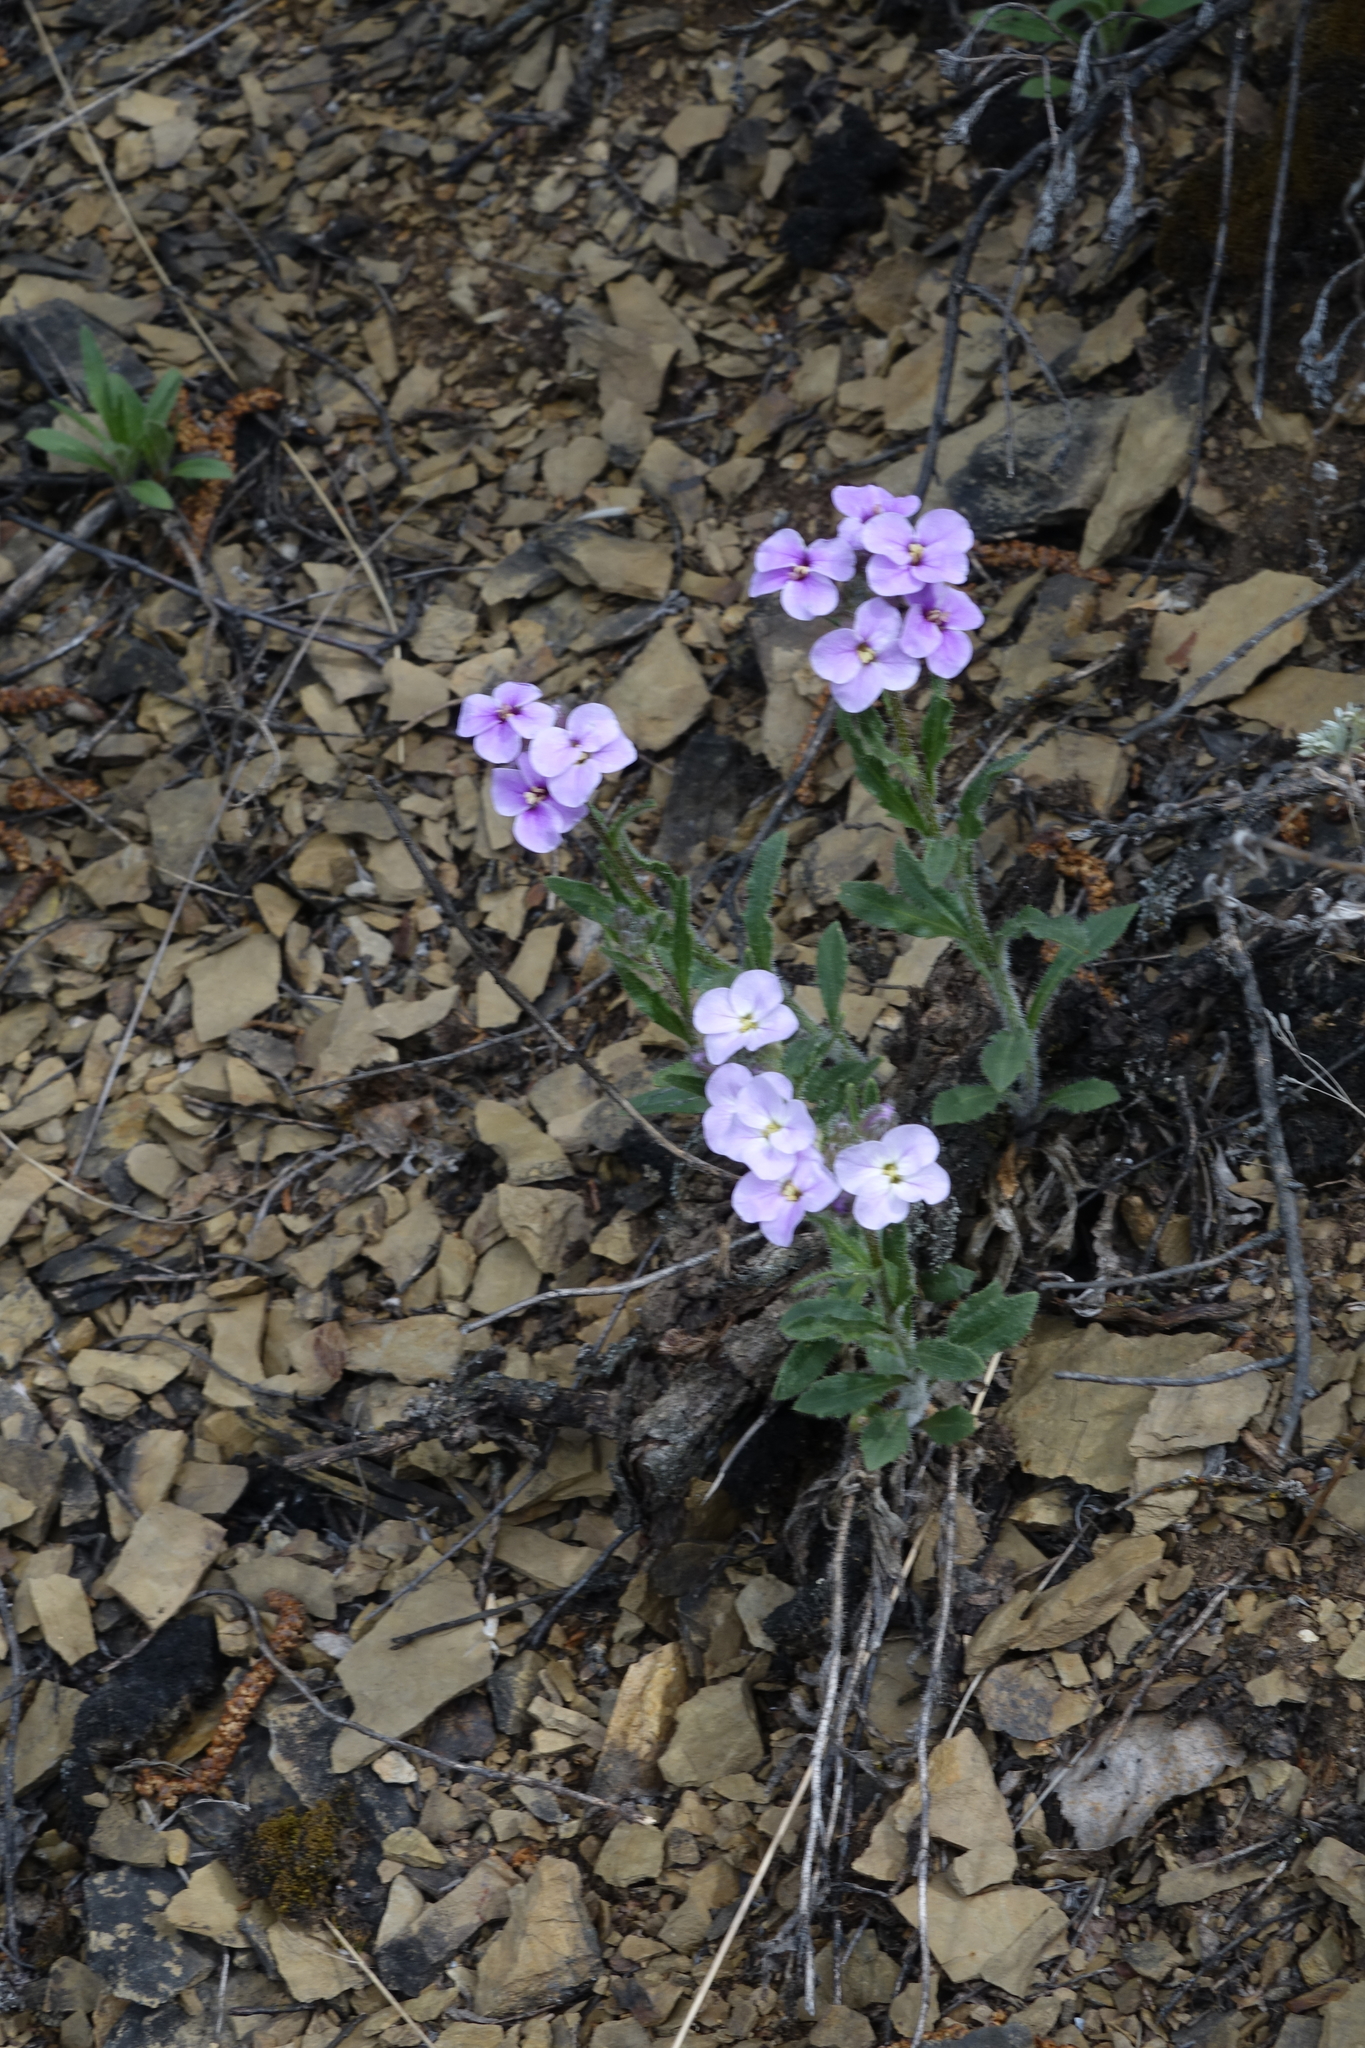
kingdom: Plantae
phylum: Tracheophyta
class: Magnoliopsida
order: Brassicales
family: Brassicaceae
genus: Clausia
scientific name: Clausia aprica
